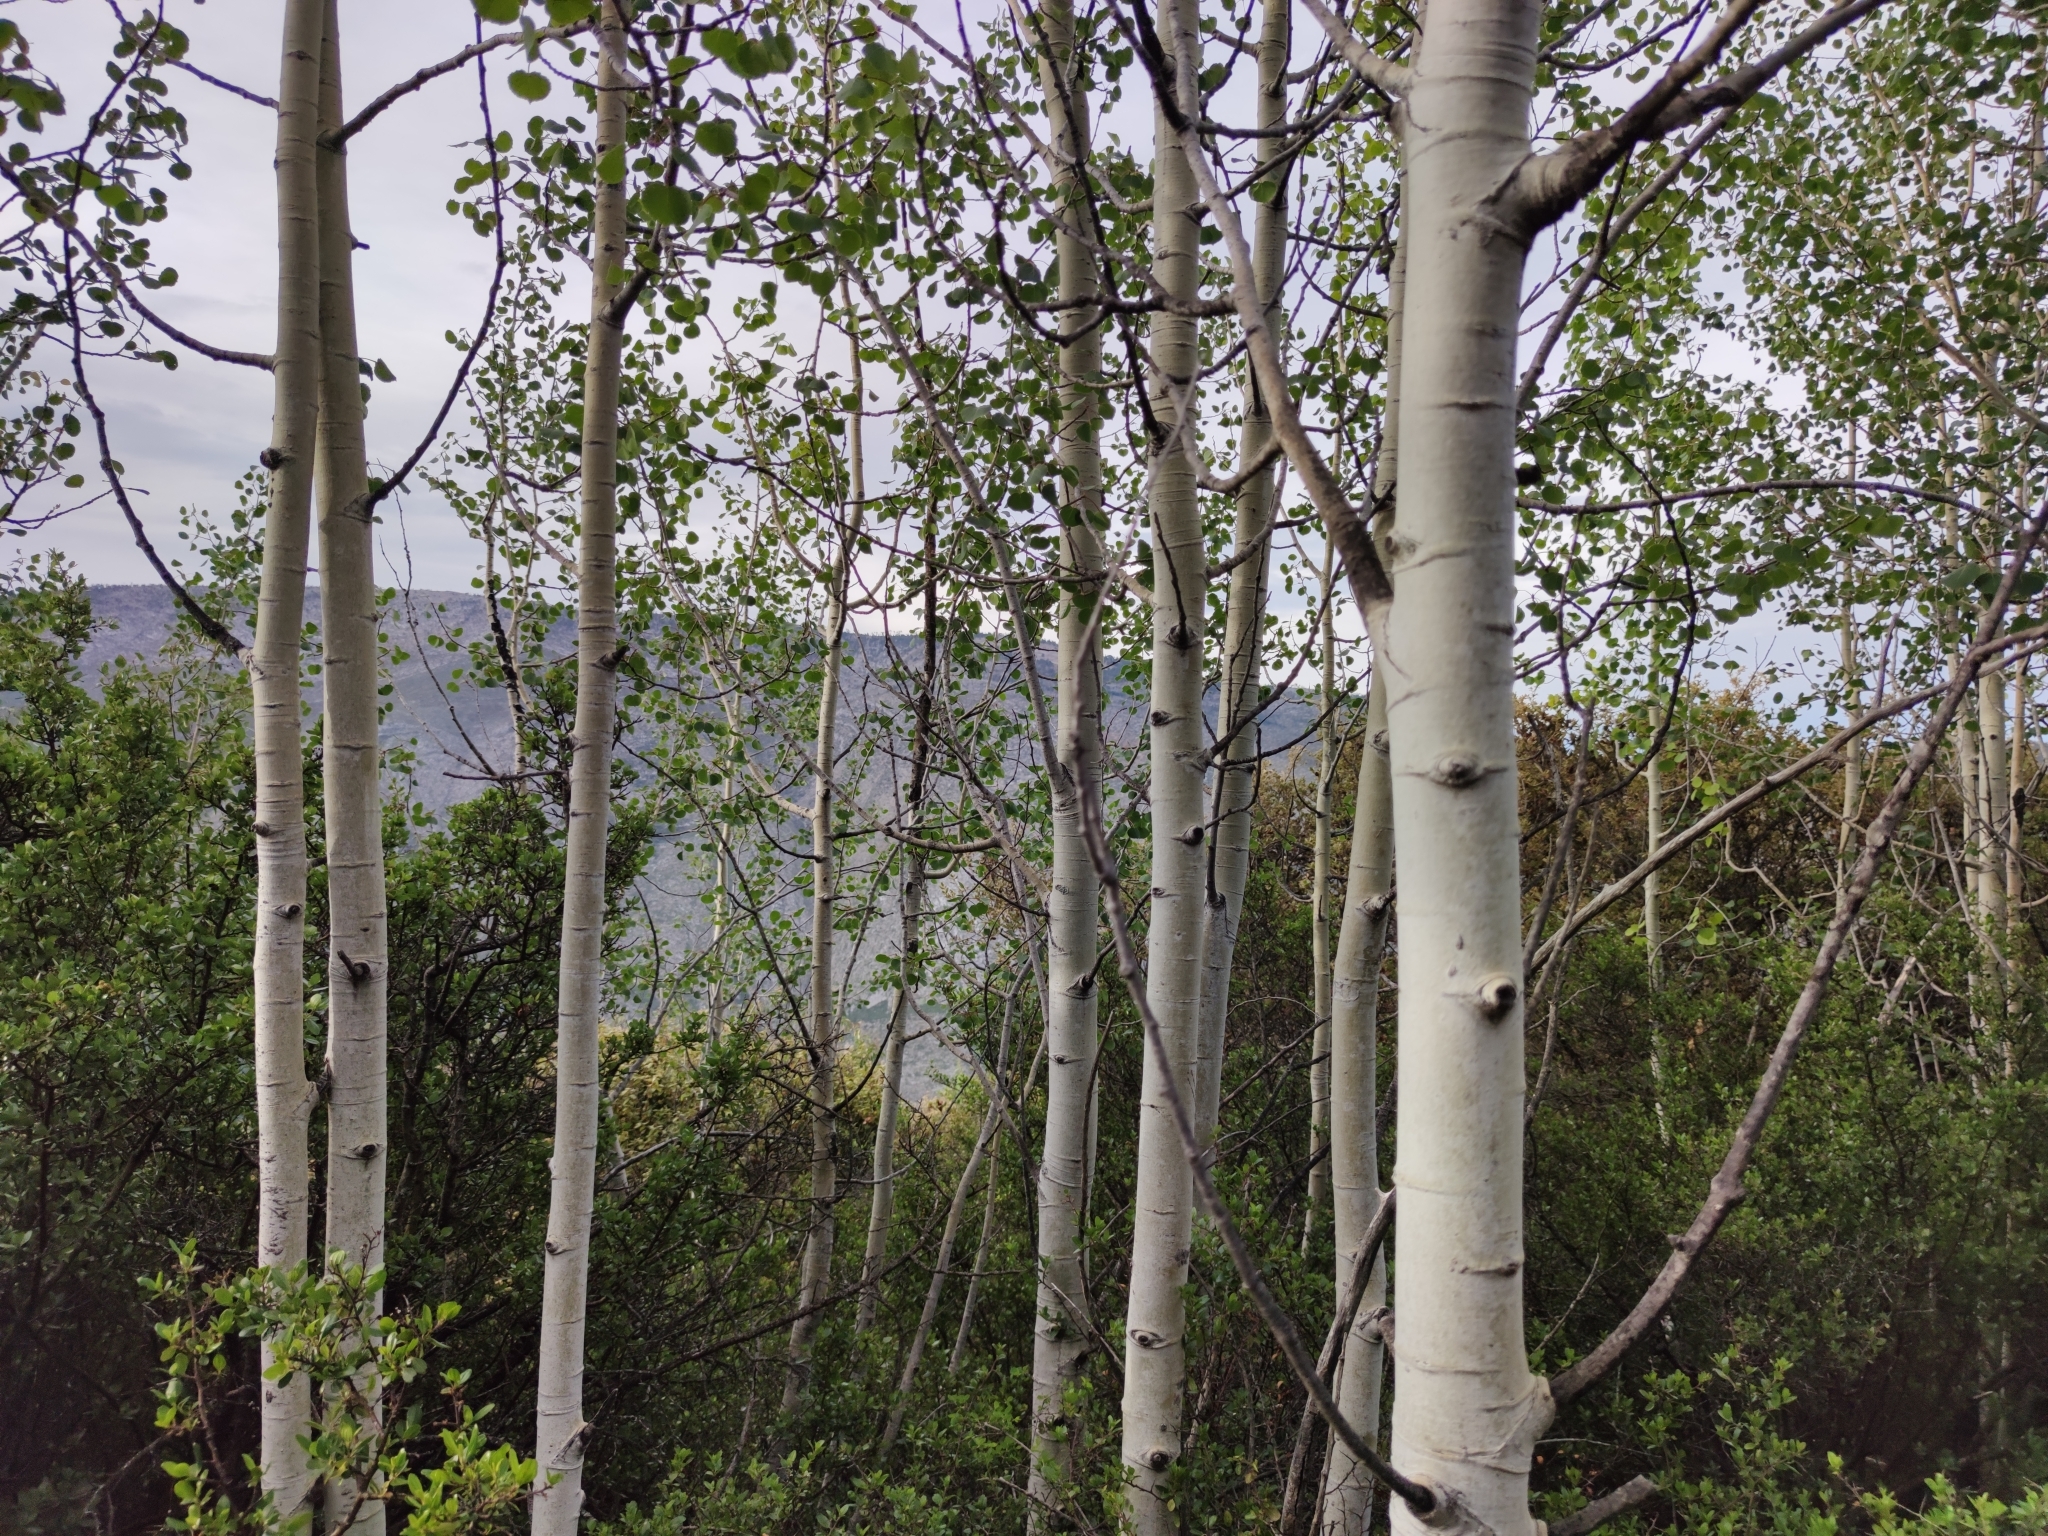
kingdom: Plantae
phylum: Tracheophyta
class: Magnoliopsida
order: Malpighiales
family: Salicaceae
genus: Populus
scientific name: Populus tremuloides
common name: Quaking aspen
